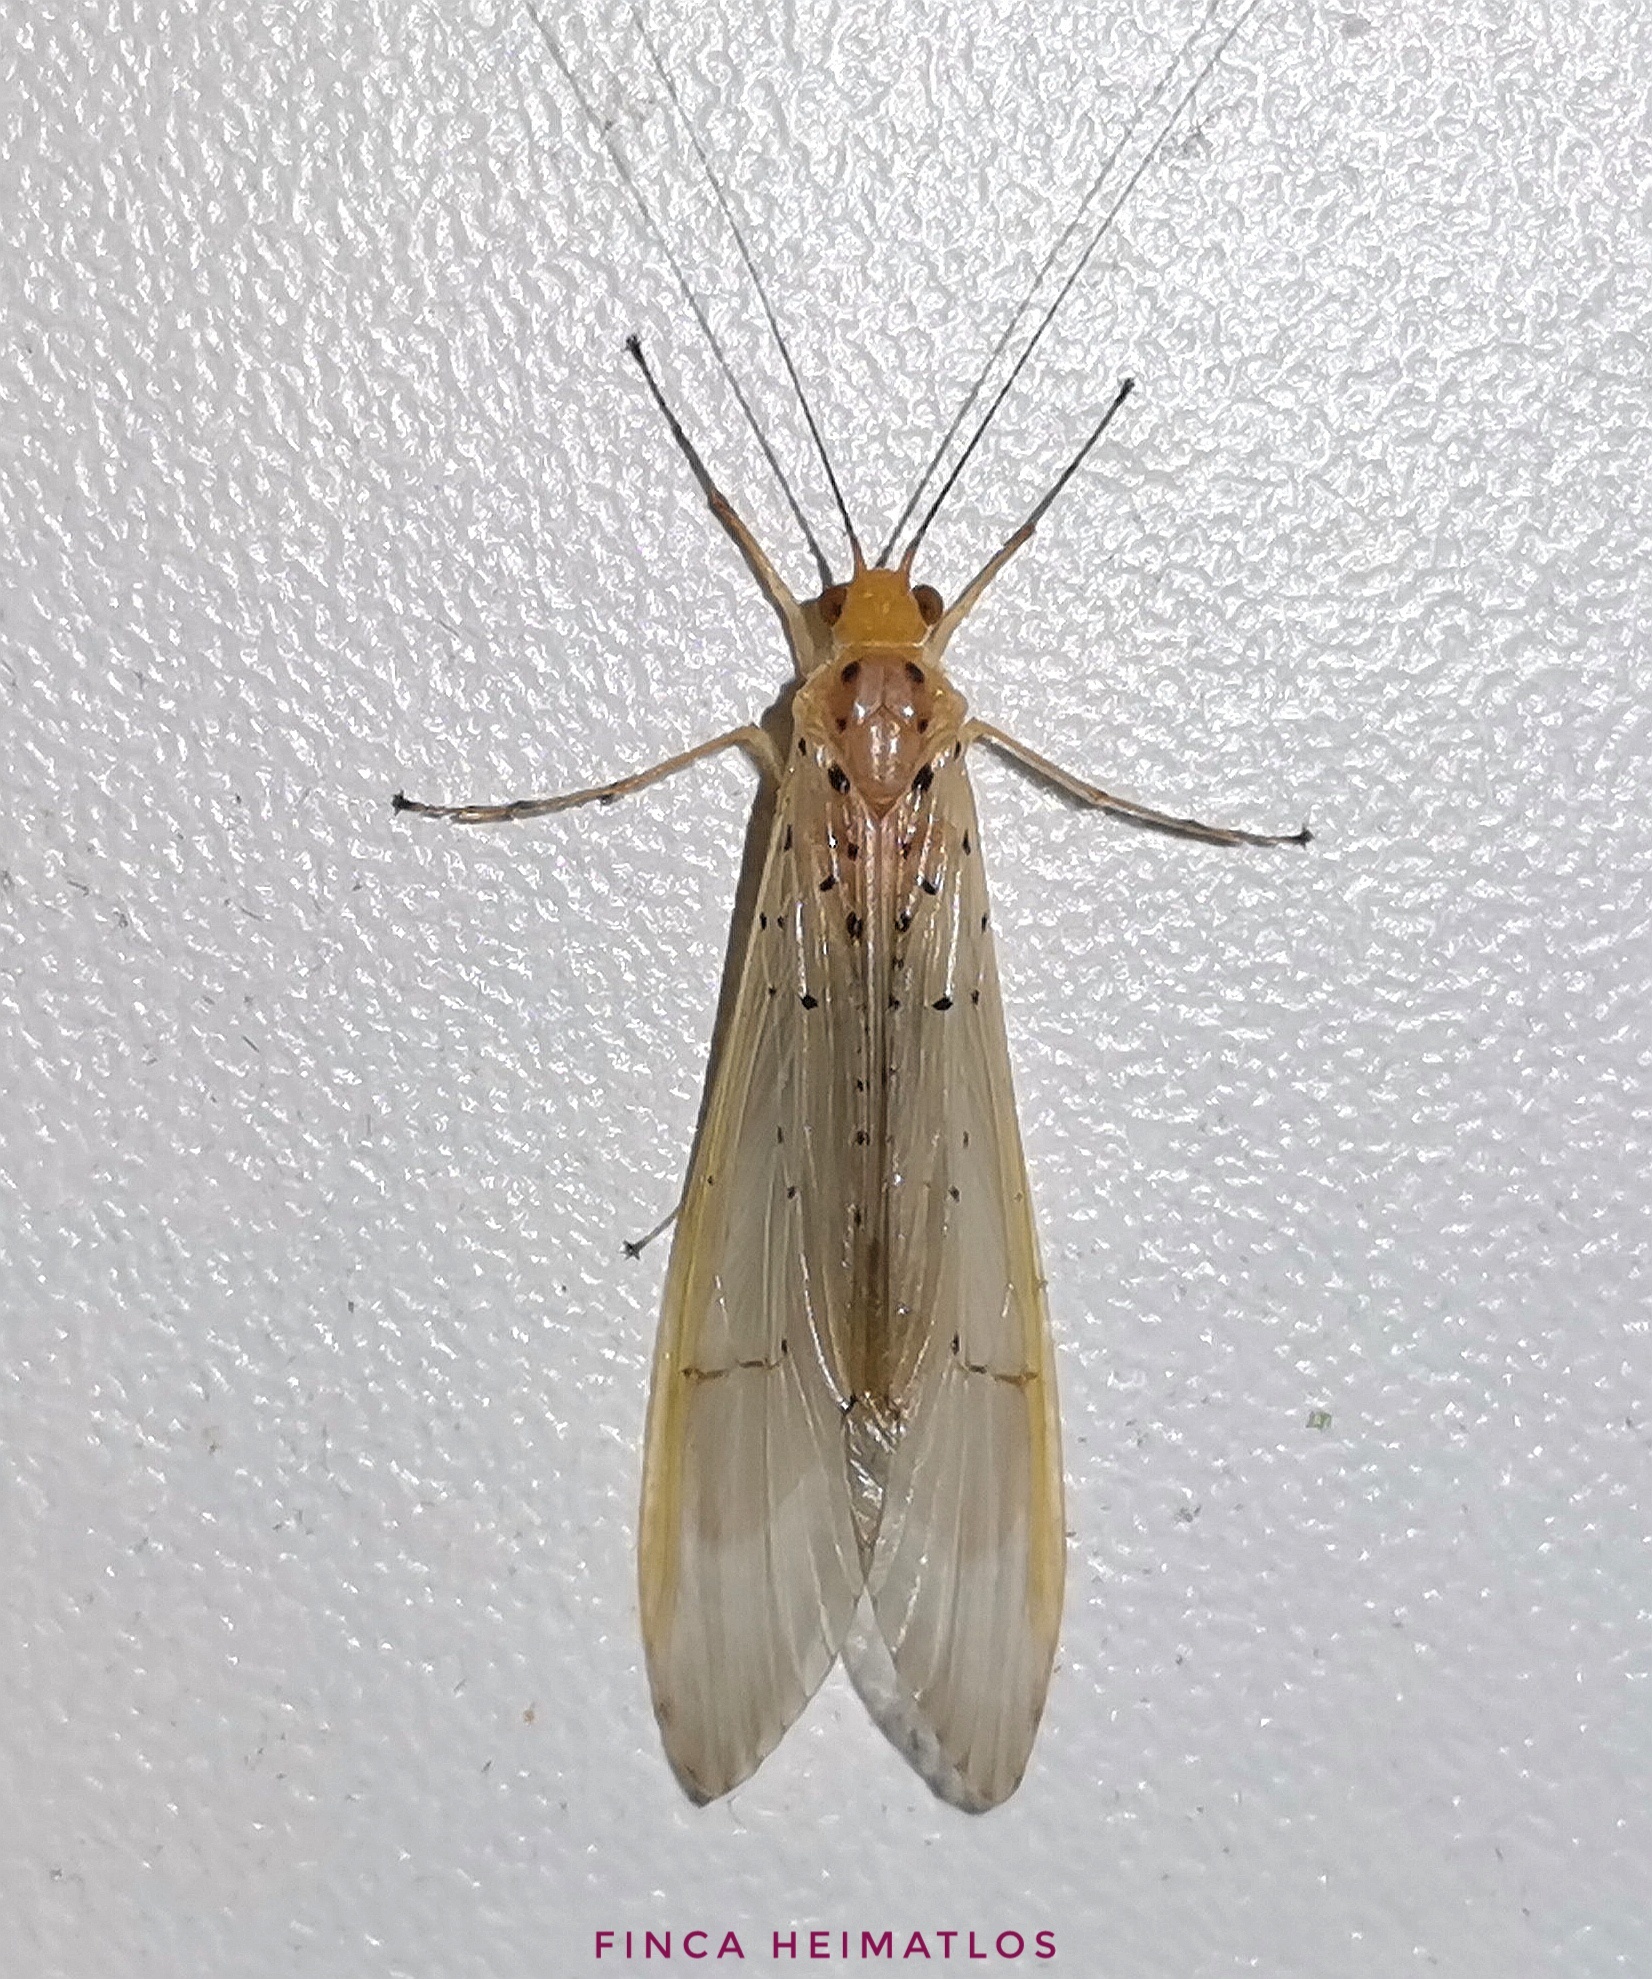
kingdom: Animalia
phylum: Arthropoda
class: Insecta
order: Trichoptera
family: Hydropsychidae
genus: Synoestropsis
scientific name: Synoestropsis punctipennis
